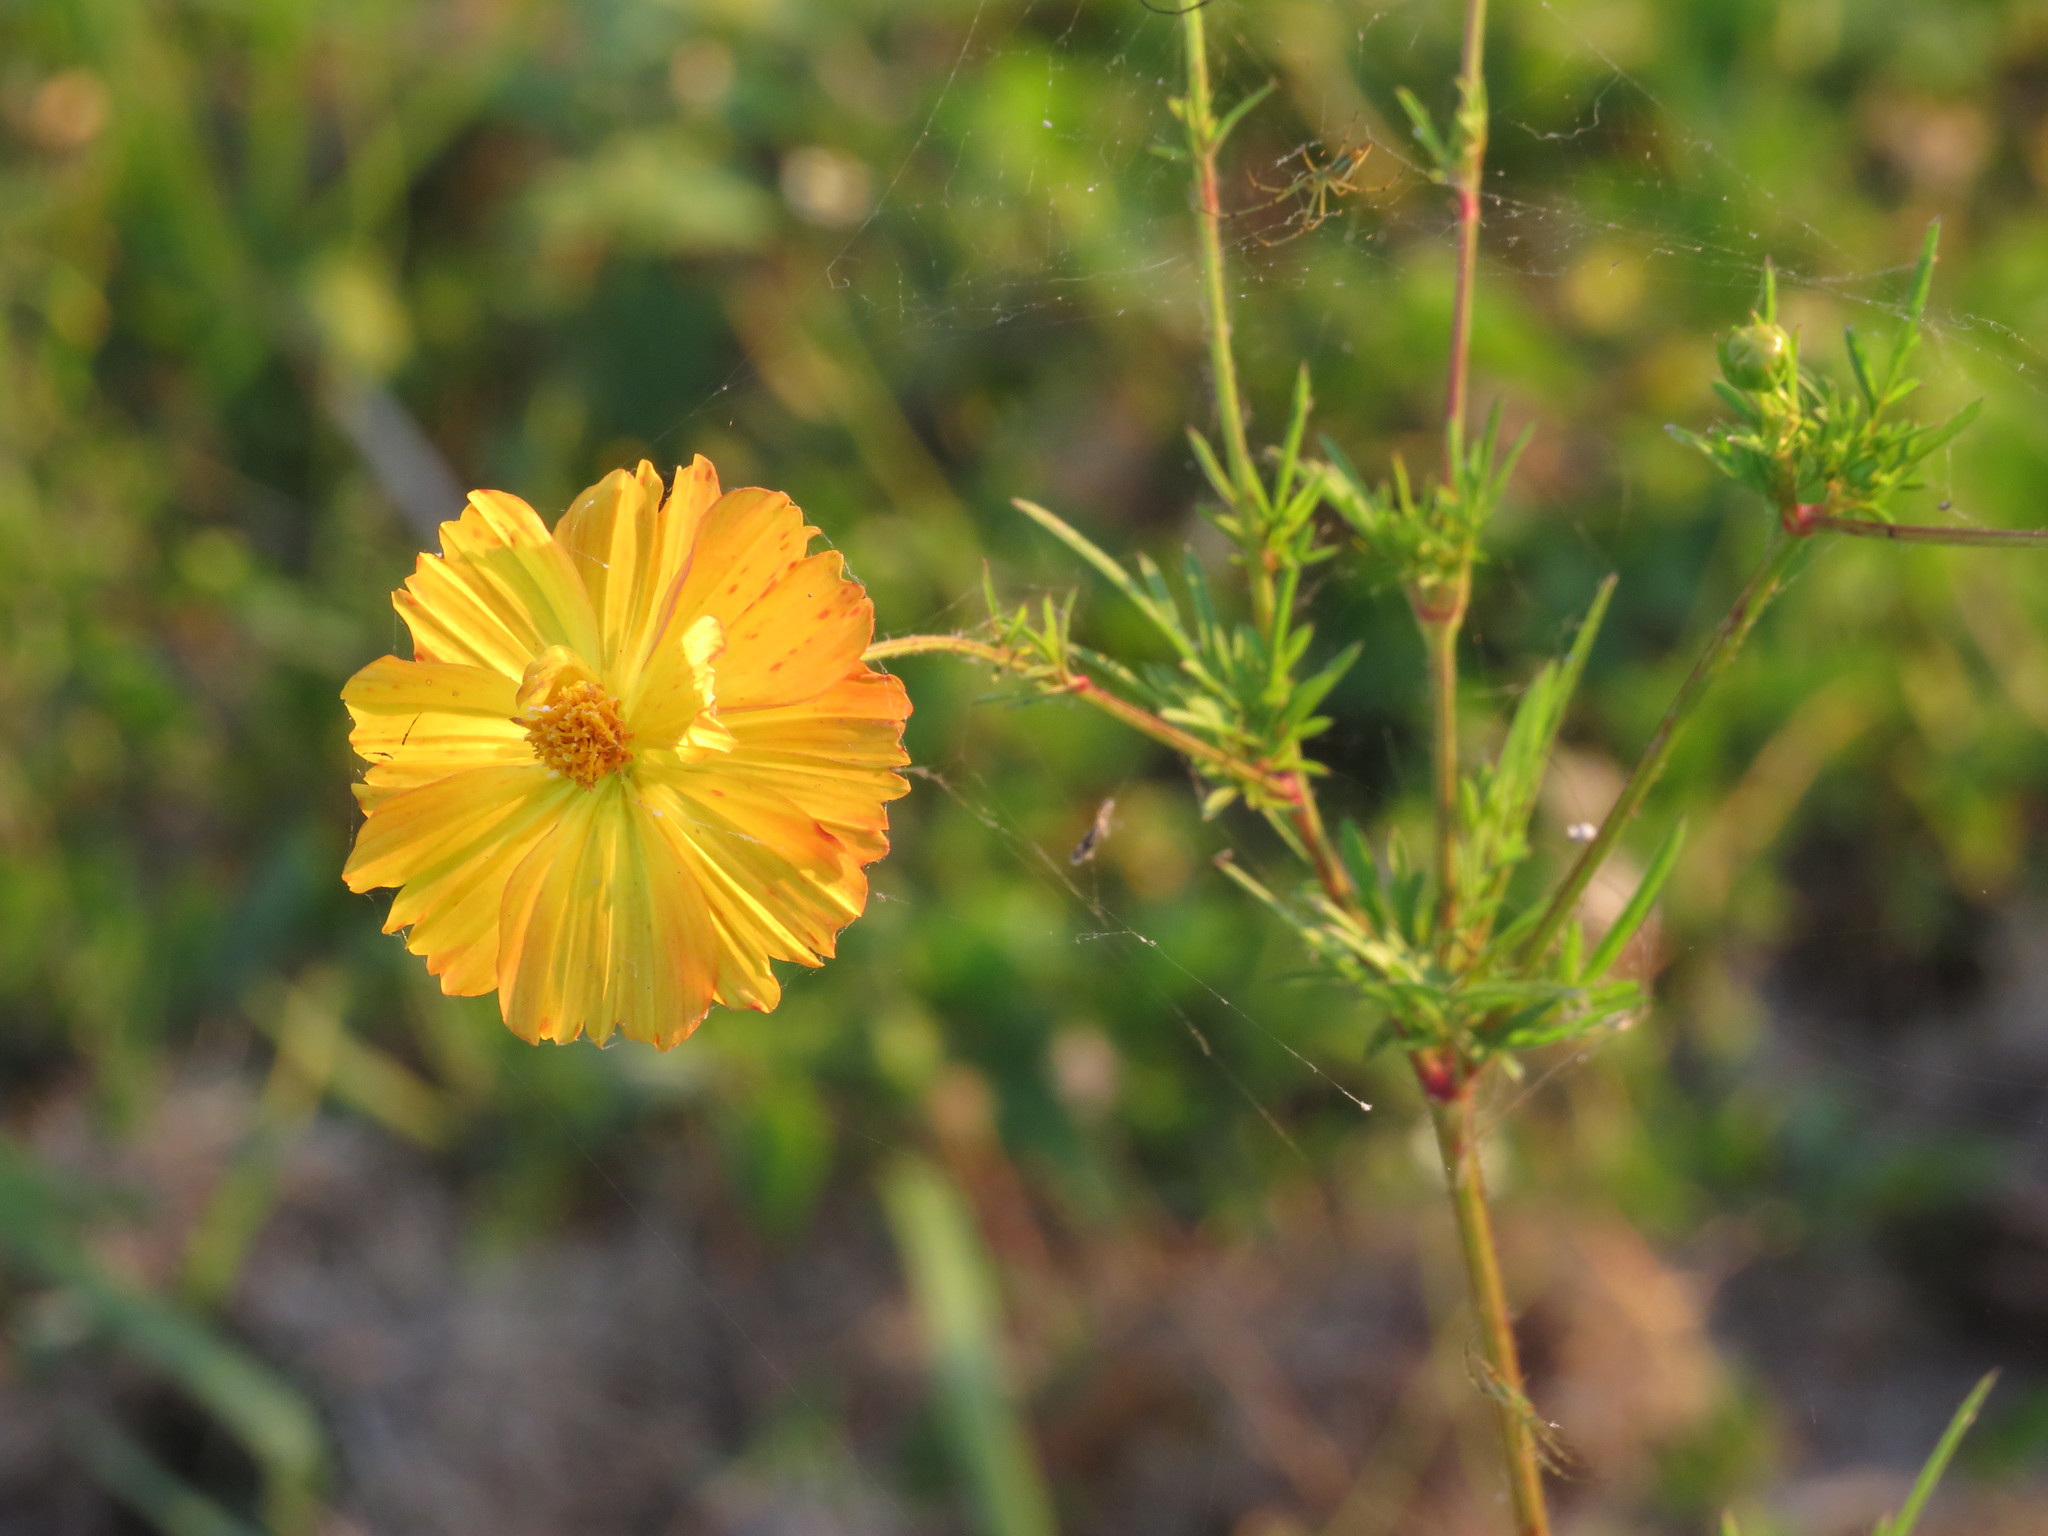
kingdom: Plantae
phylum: Tracheophyta
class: Magnoliopsida
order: Asterales
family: Asteraceae
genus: Cosmos
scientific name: Cosmos sulphureus
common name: Sulphur cosmos
